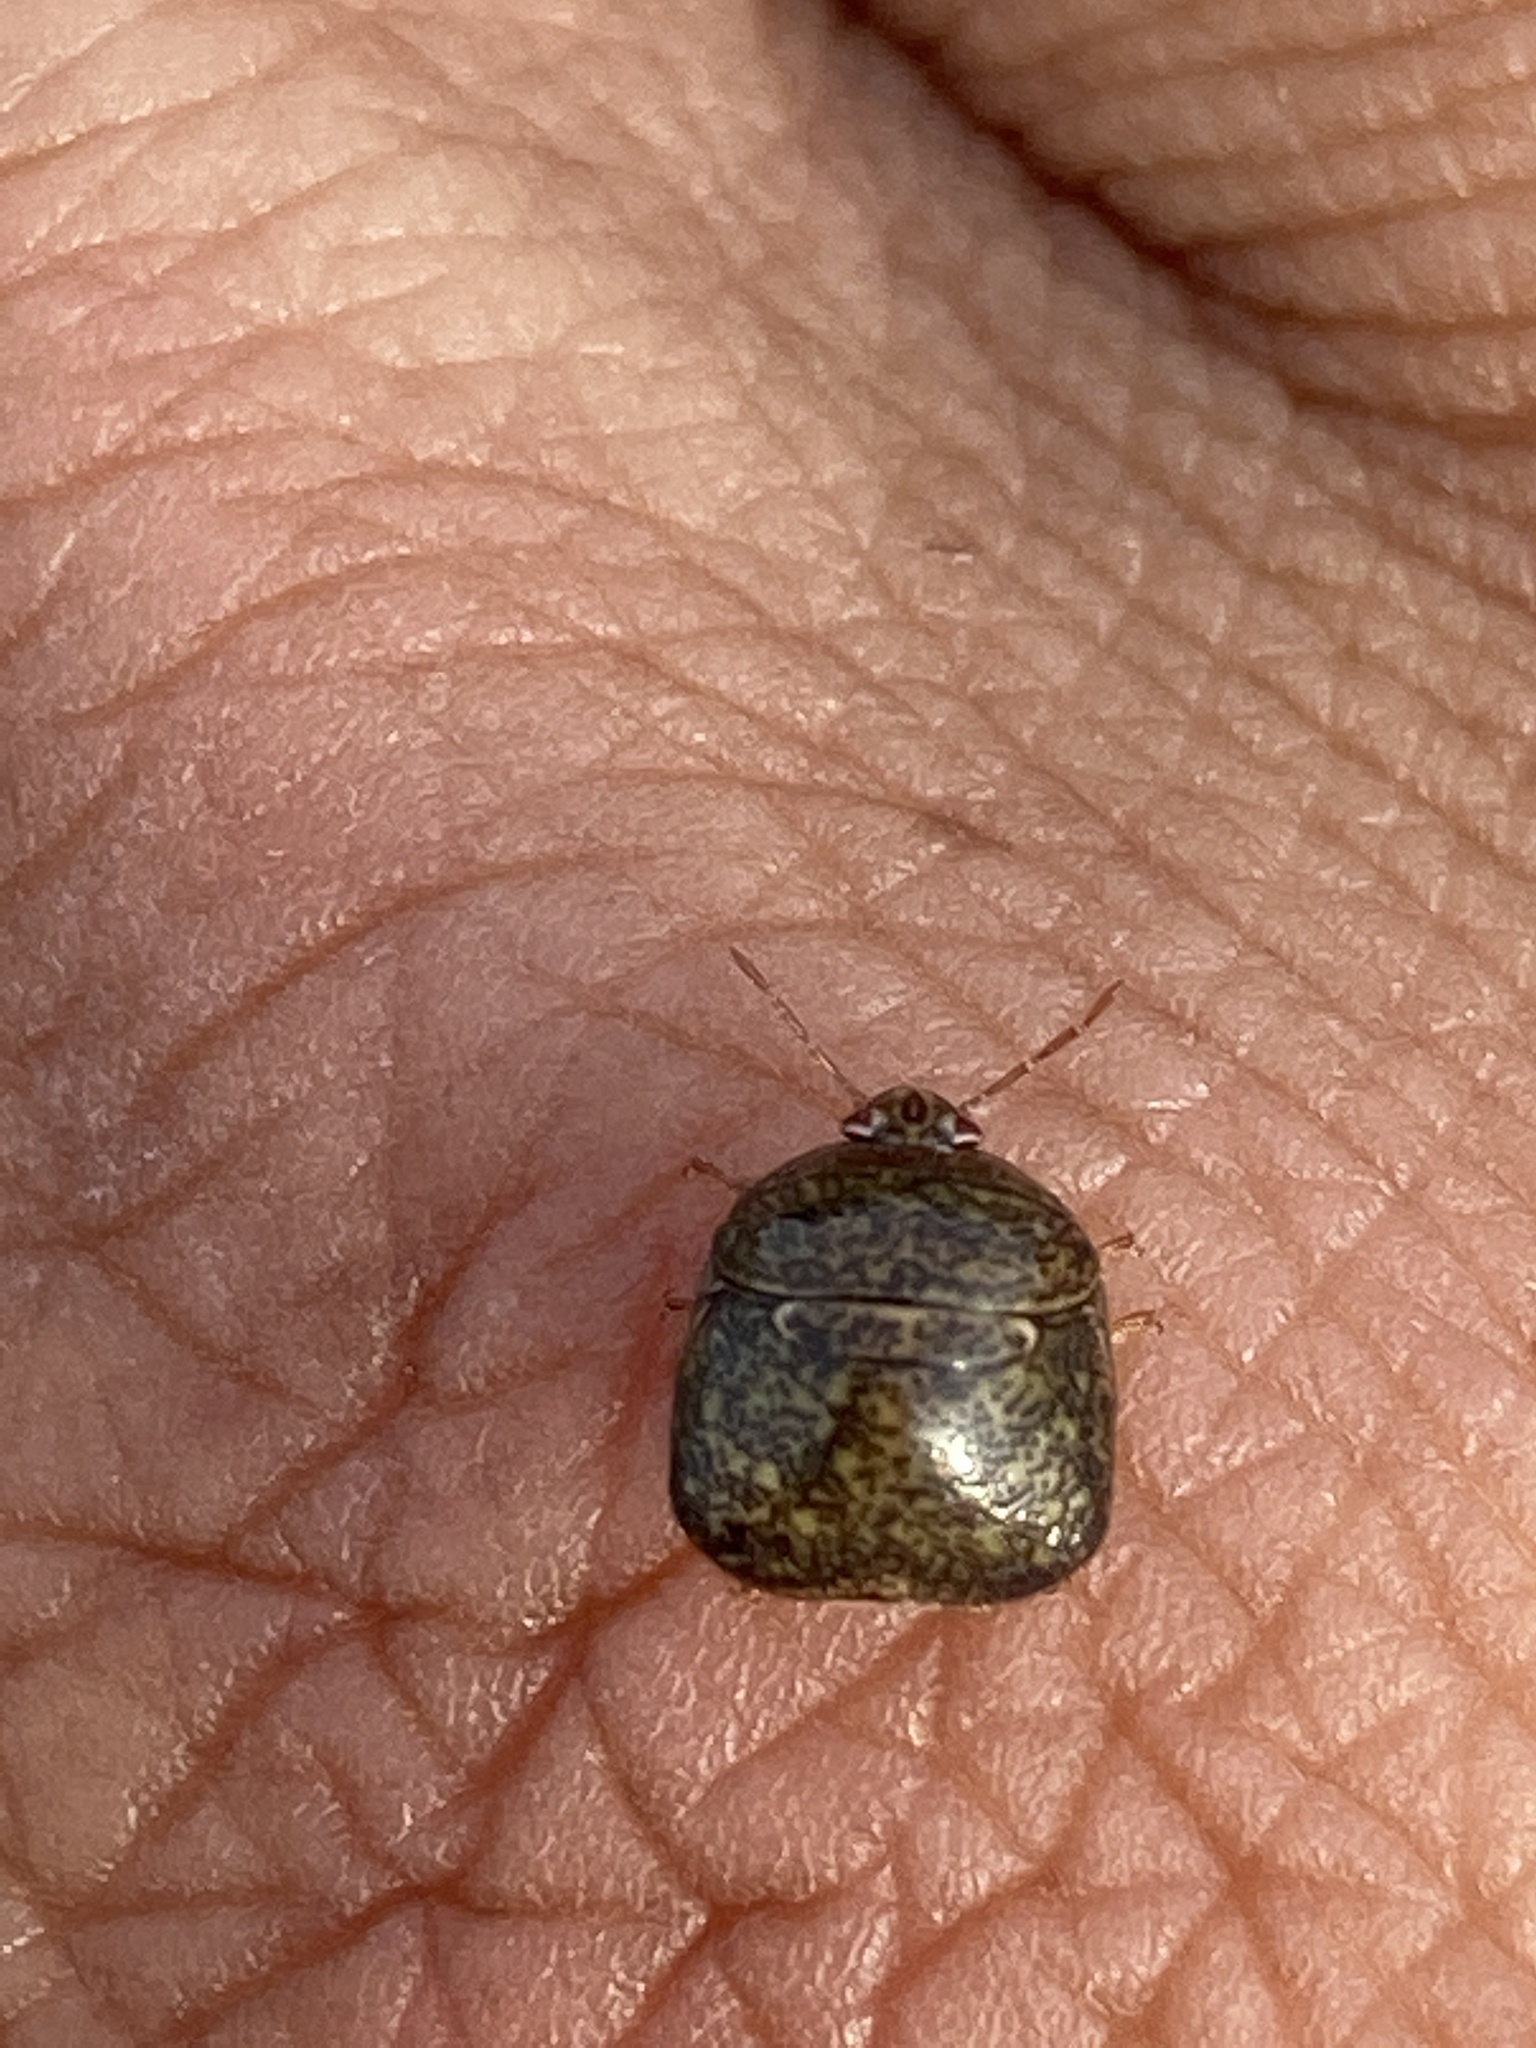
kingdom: Animalia
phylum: Arthropoda
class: Insecta
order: Hemiptera
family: Plataspidae
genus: Megacopta
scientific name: Megacopta cribraria
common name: Bean plataspid
